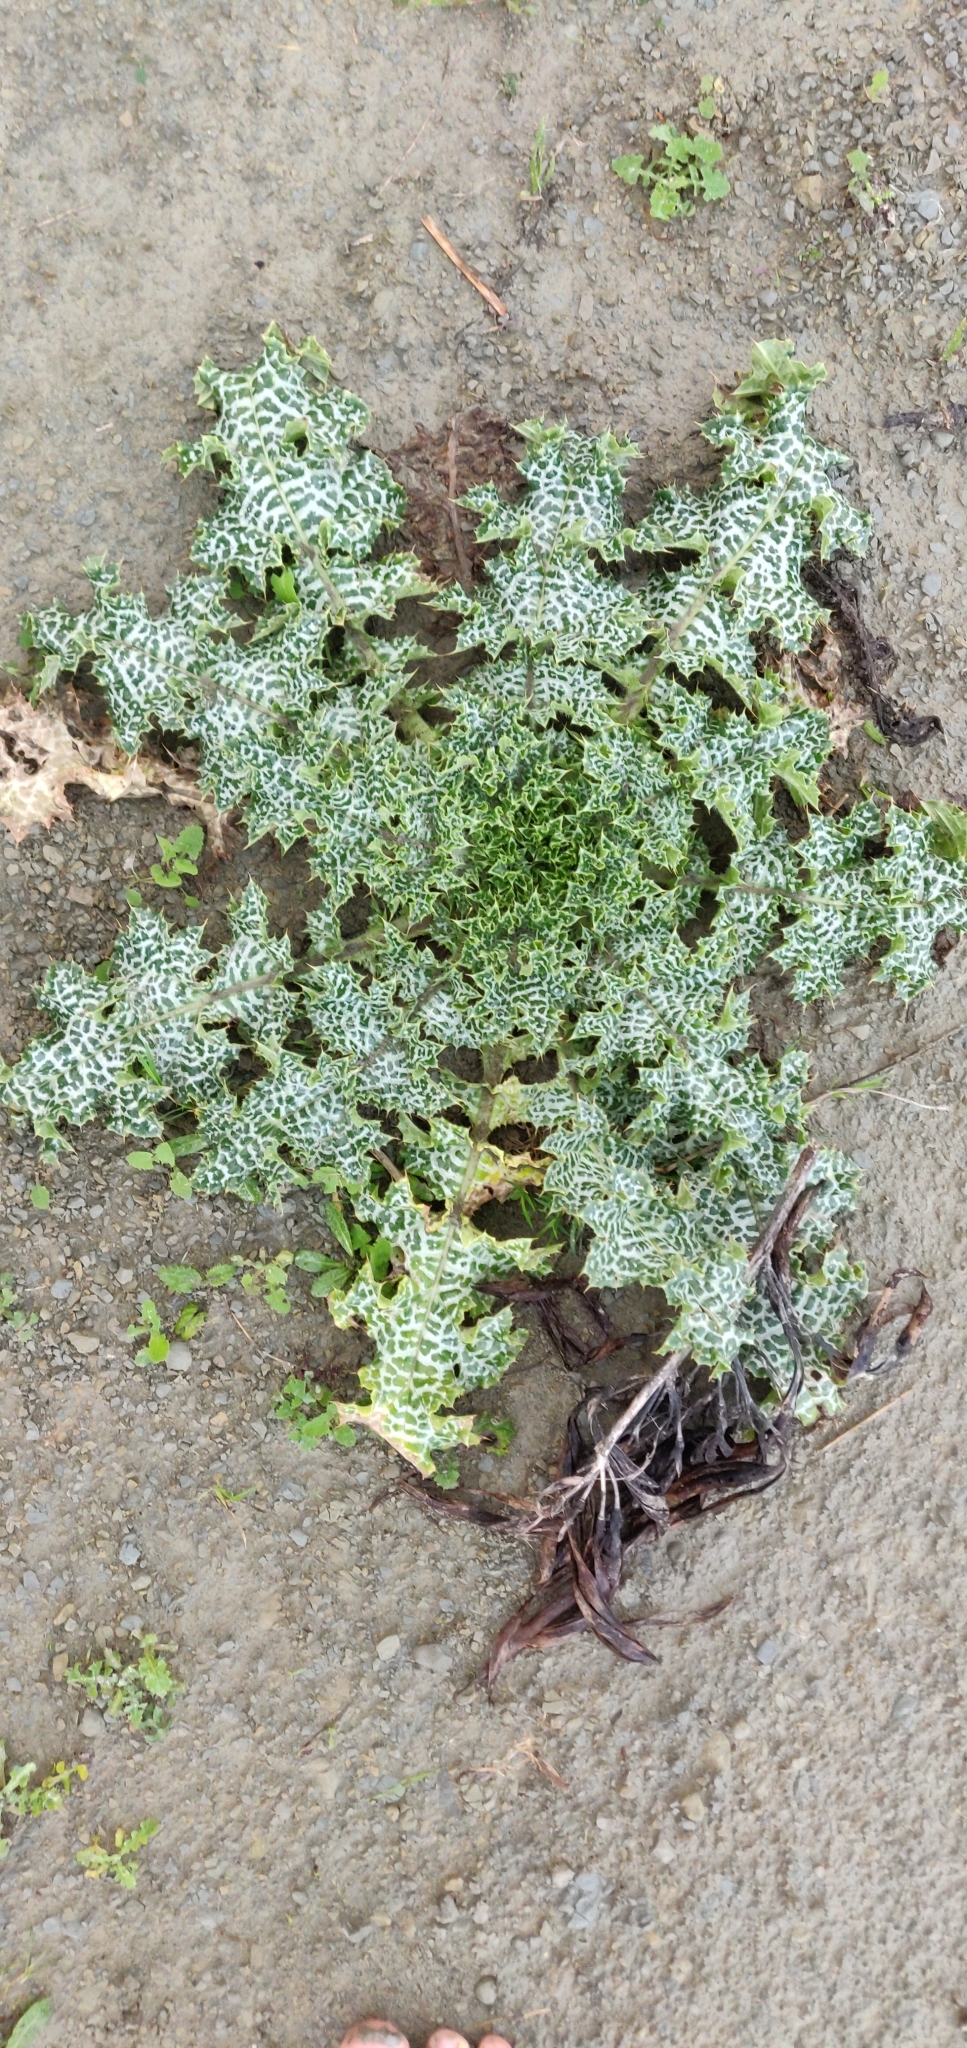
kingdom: Plantae
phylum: Tracheophyta
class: Magnoliopsida
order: Asterales
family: Asteraceae
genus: Silybum
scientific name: Silybum marianum
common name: Milk thistle
